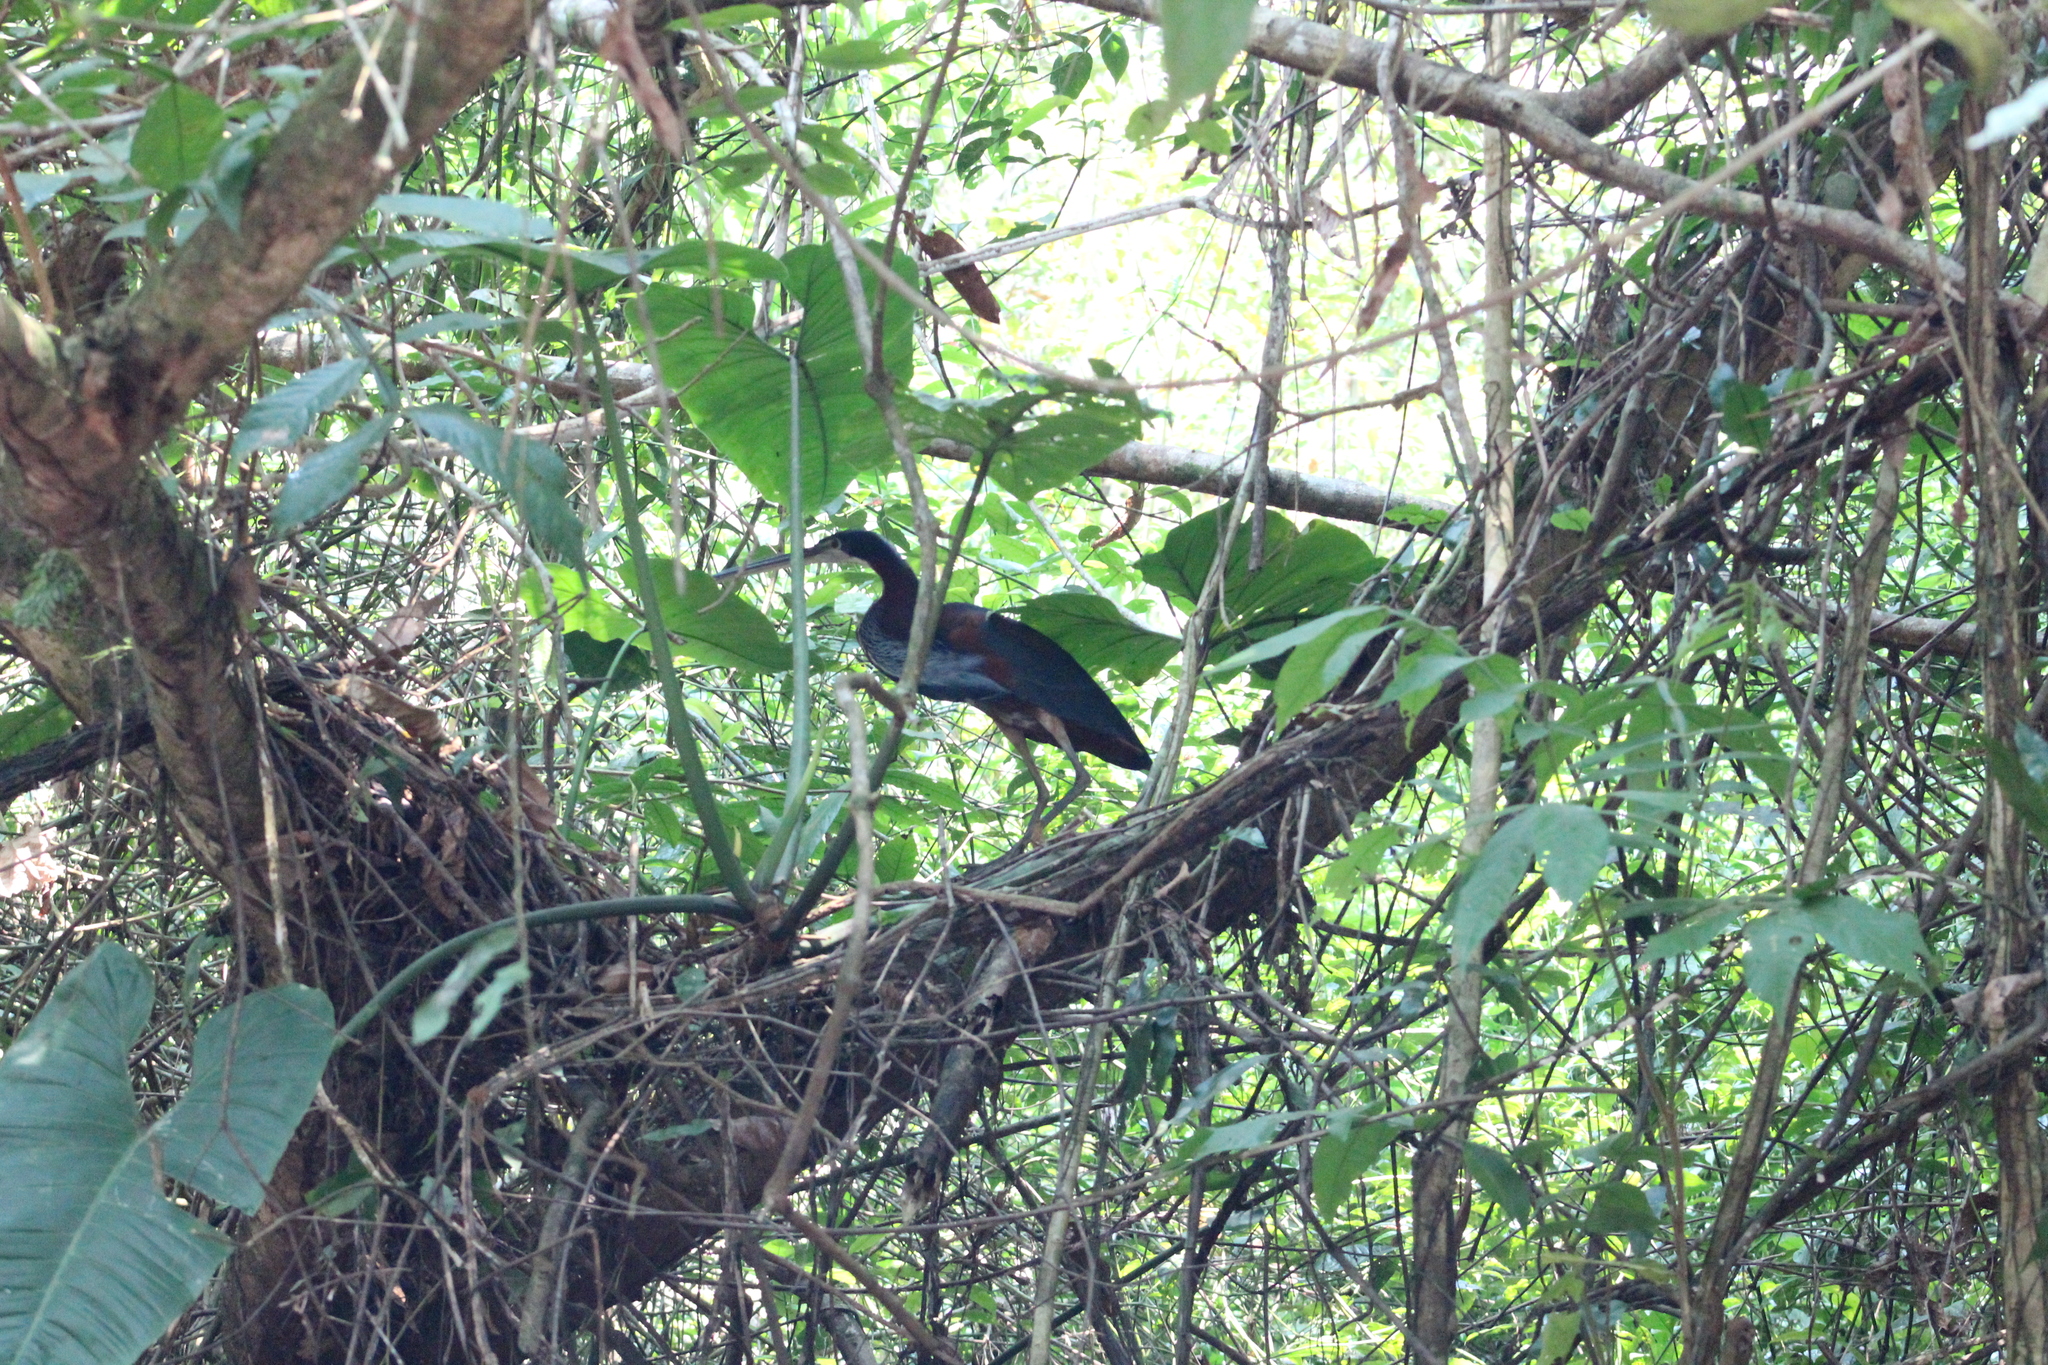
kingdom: Animalia
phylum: Chordata
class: Aves
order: Pelecaniformes
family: Ardeidae
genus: Agamia
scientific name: Agamia agami
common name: Agami heron
